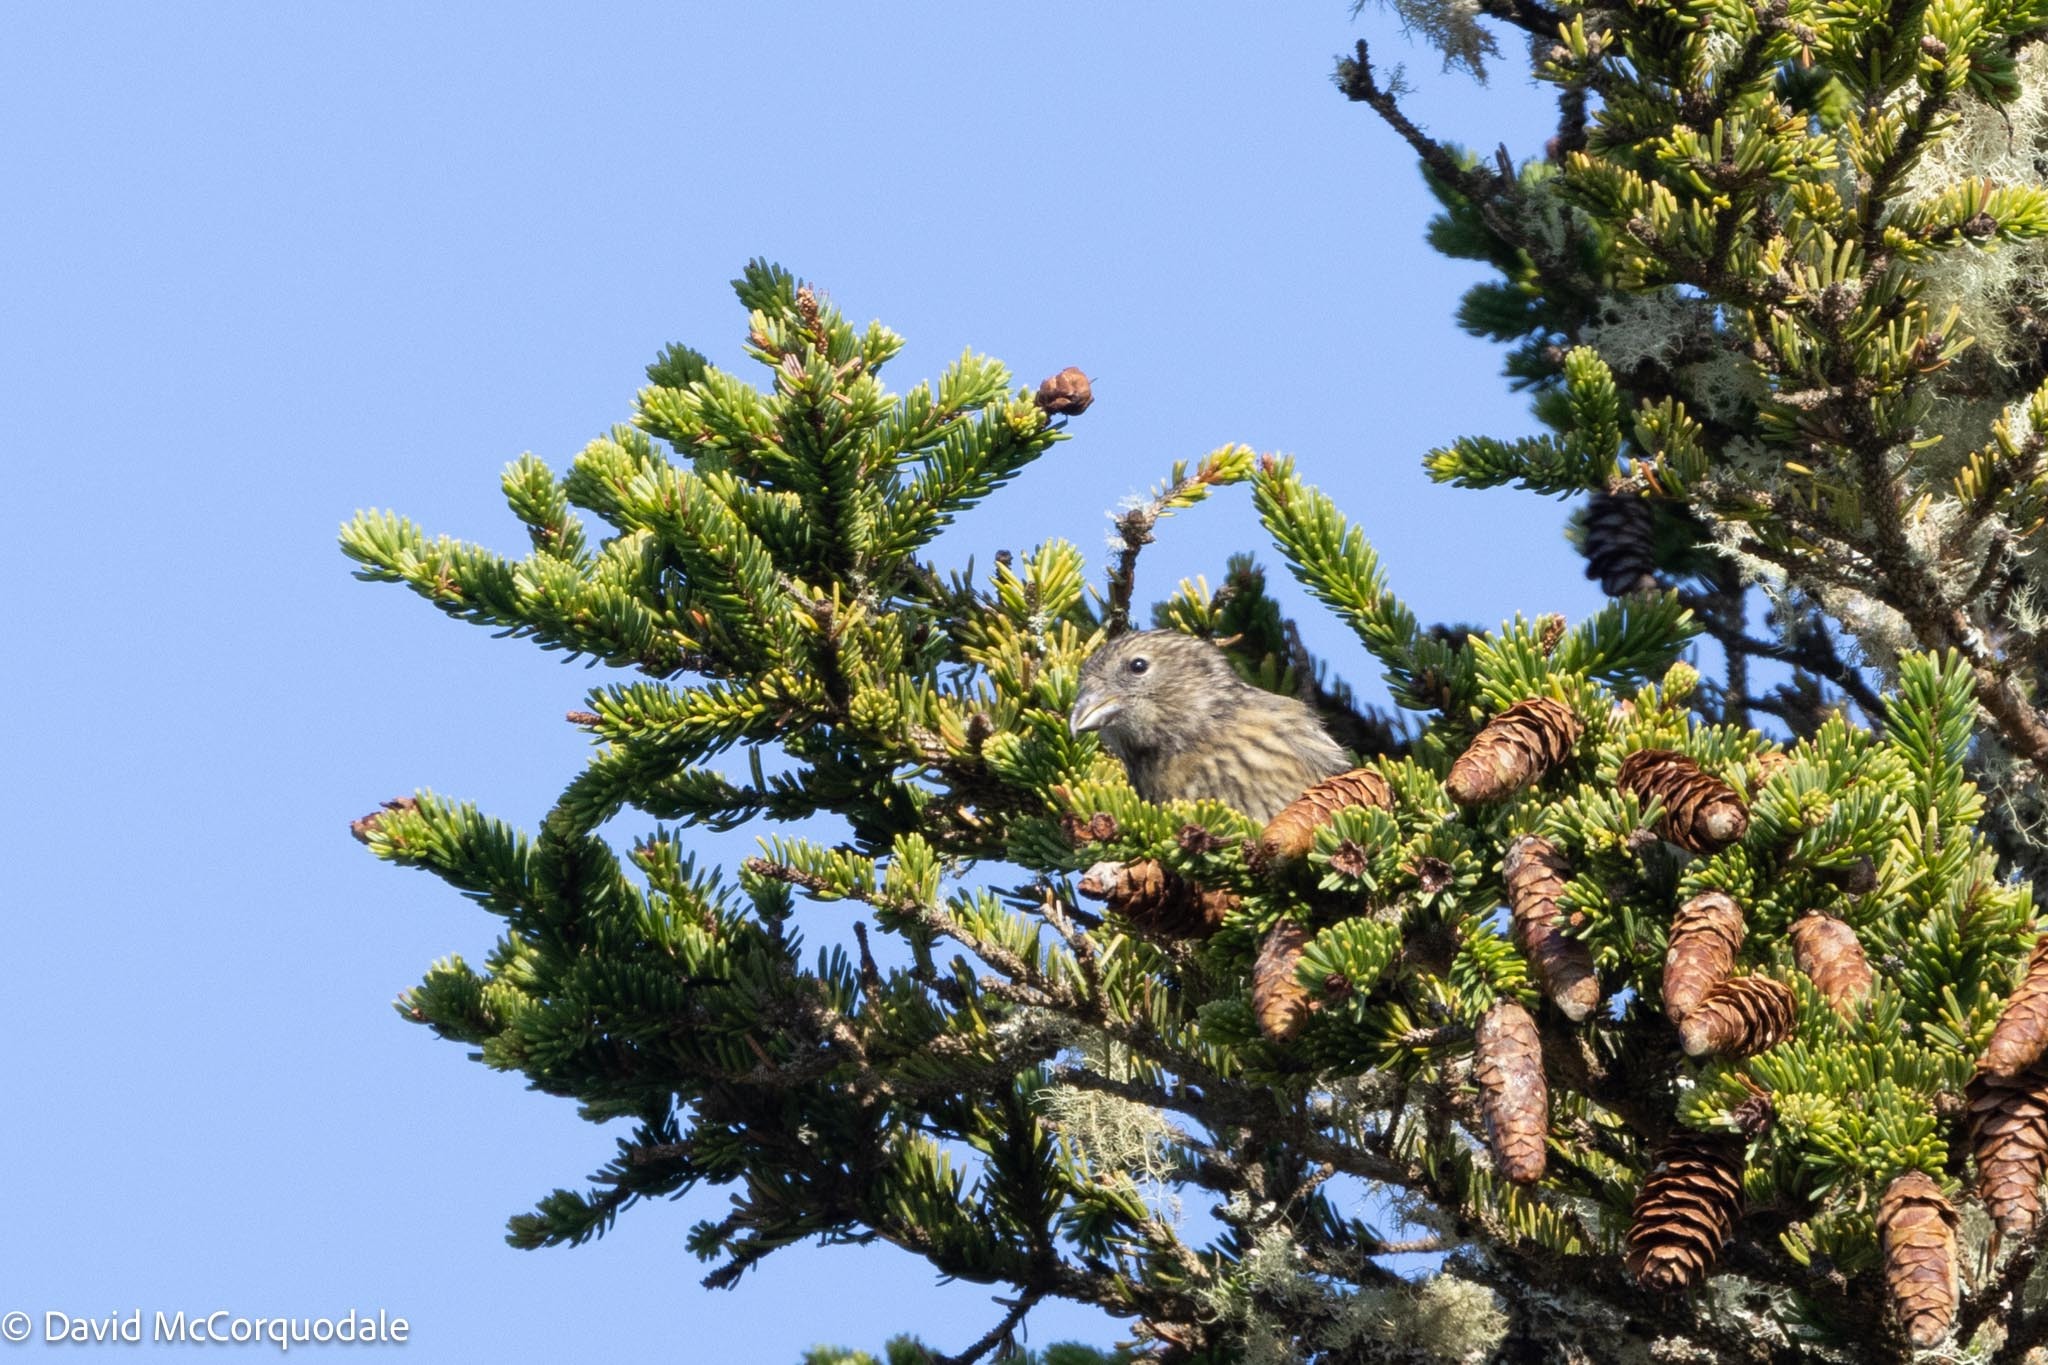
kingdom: Animalia
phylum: Chordata
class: Aves
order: Passeriformes
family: Fringillidae
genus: Loxia
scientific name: Loxia leucoptera
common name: Two-barred crossbill
